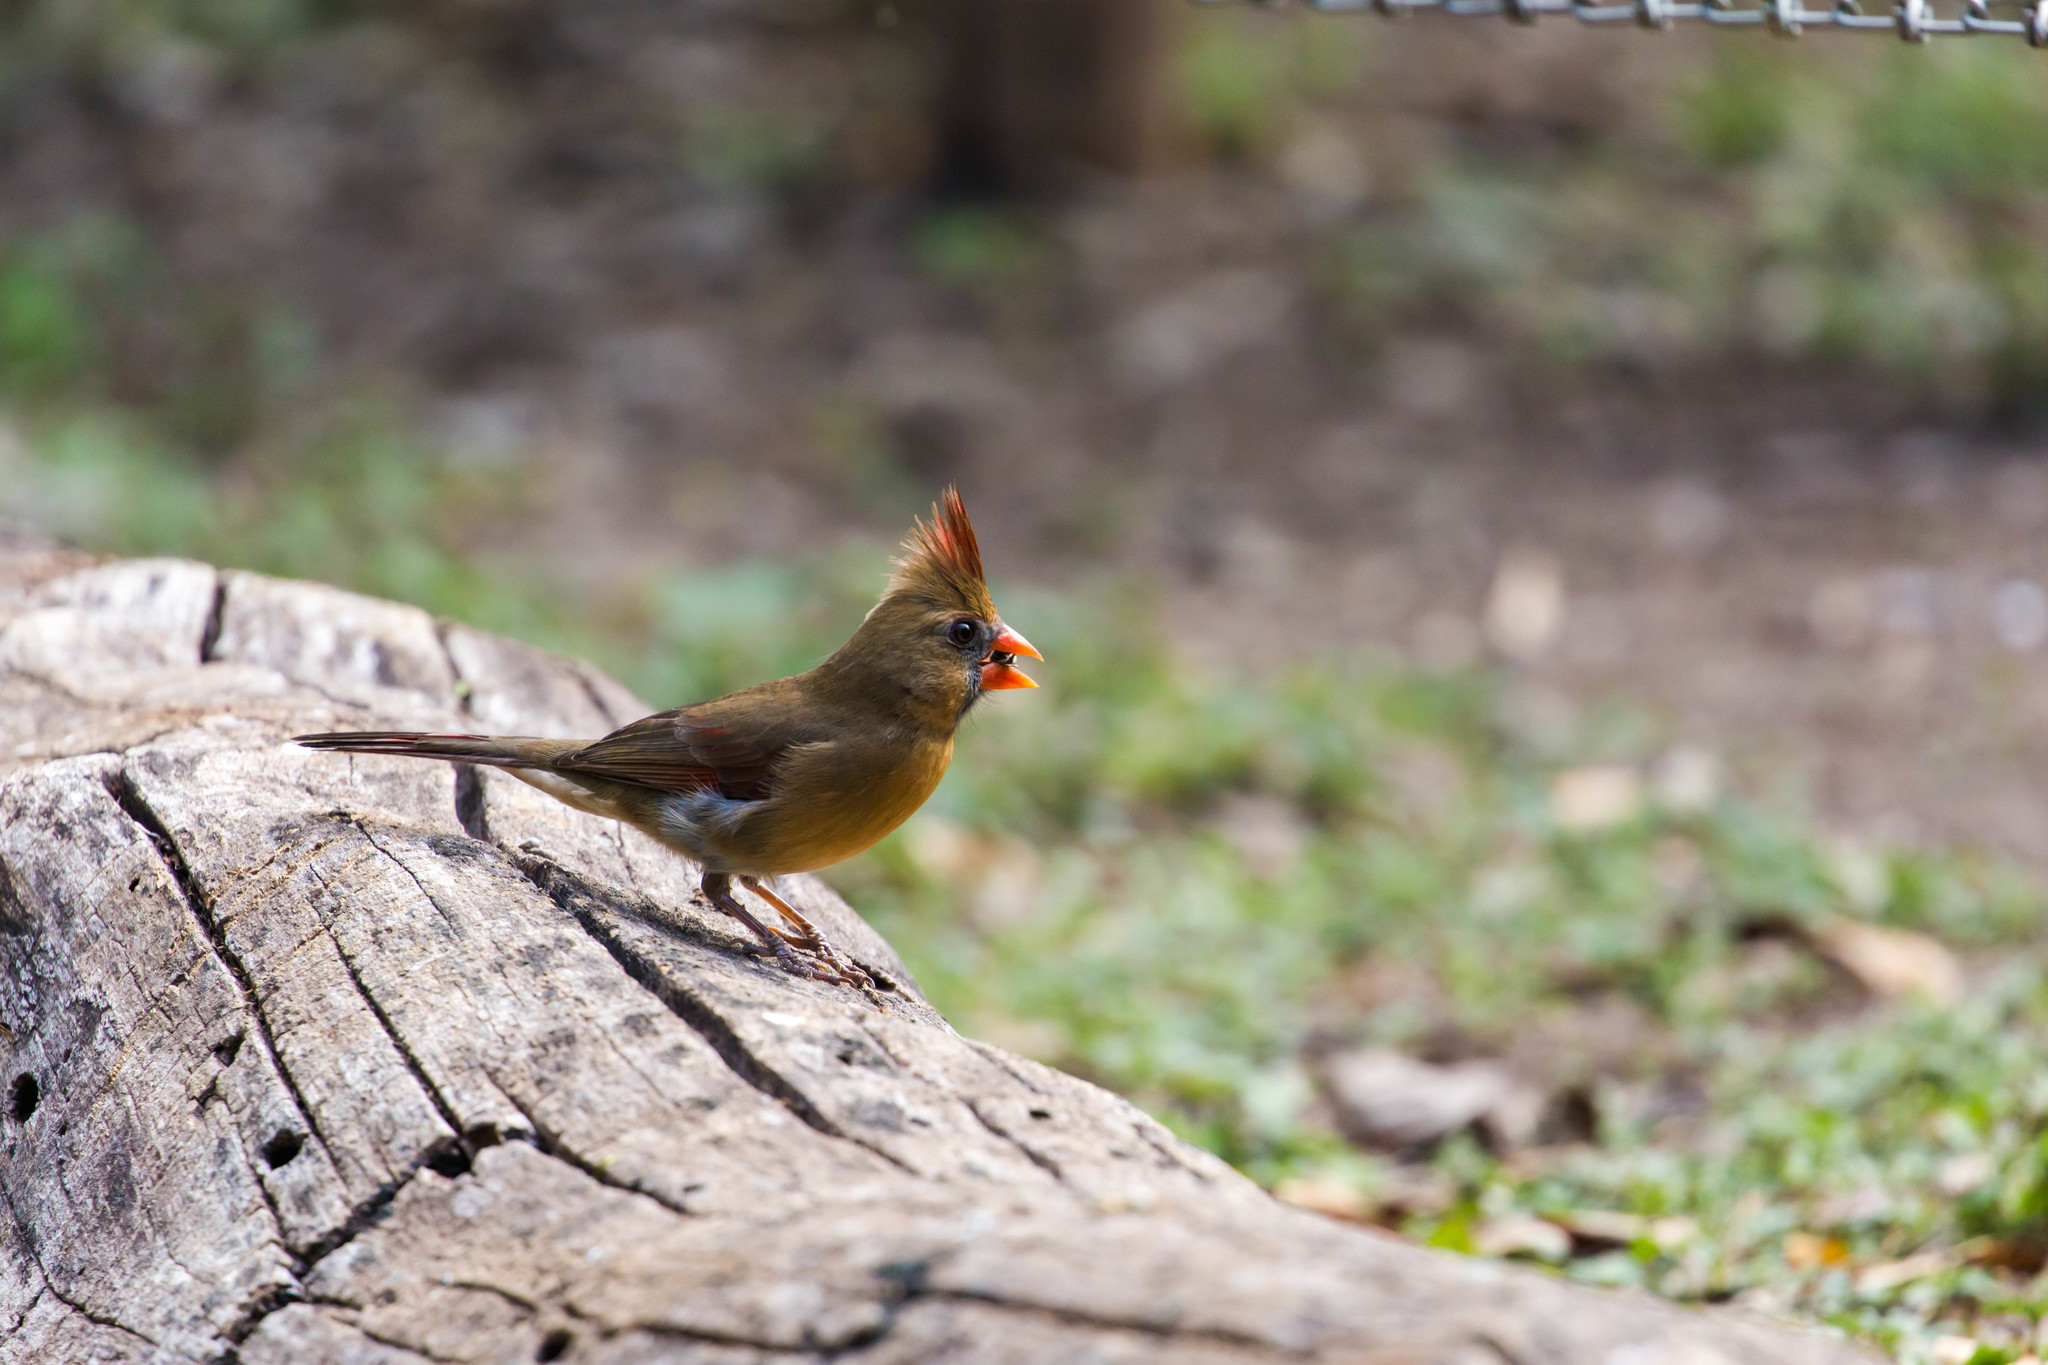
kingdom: Animalia
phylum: Chordata
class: Aves
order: Passeriformes
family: Cardinalidae
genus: Cardinalis
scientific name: Cardinalis cardinalis
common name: Northern cardinal
